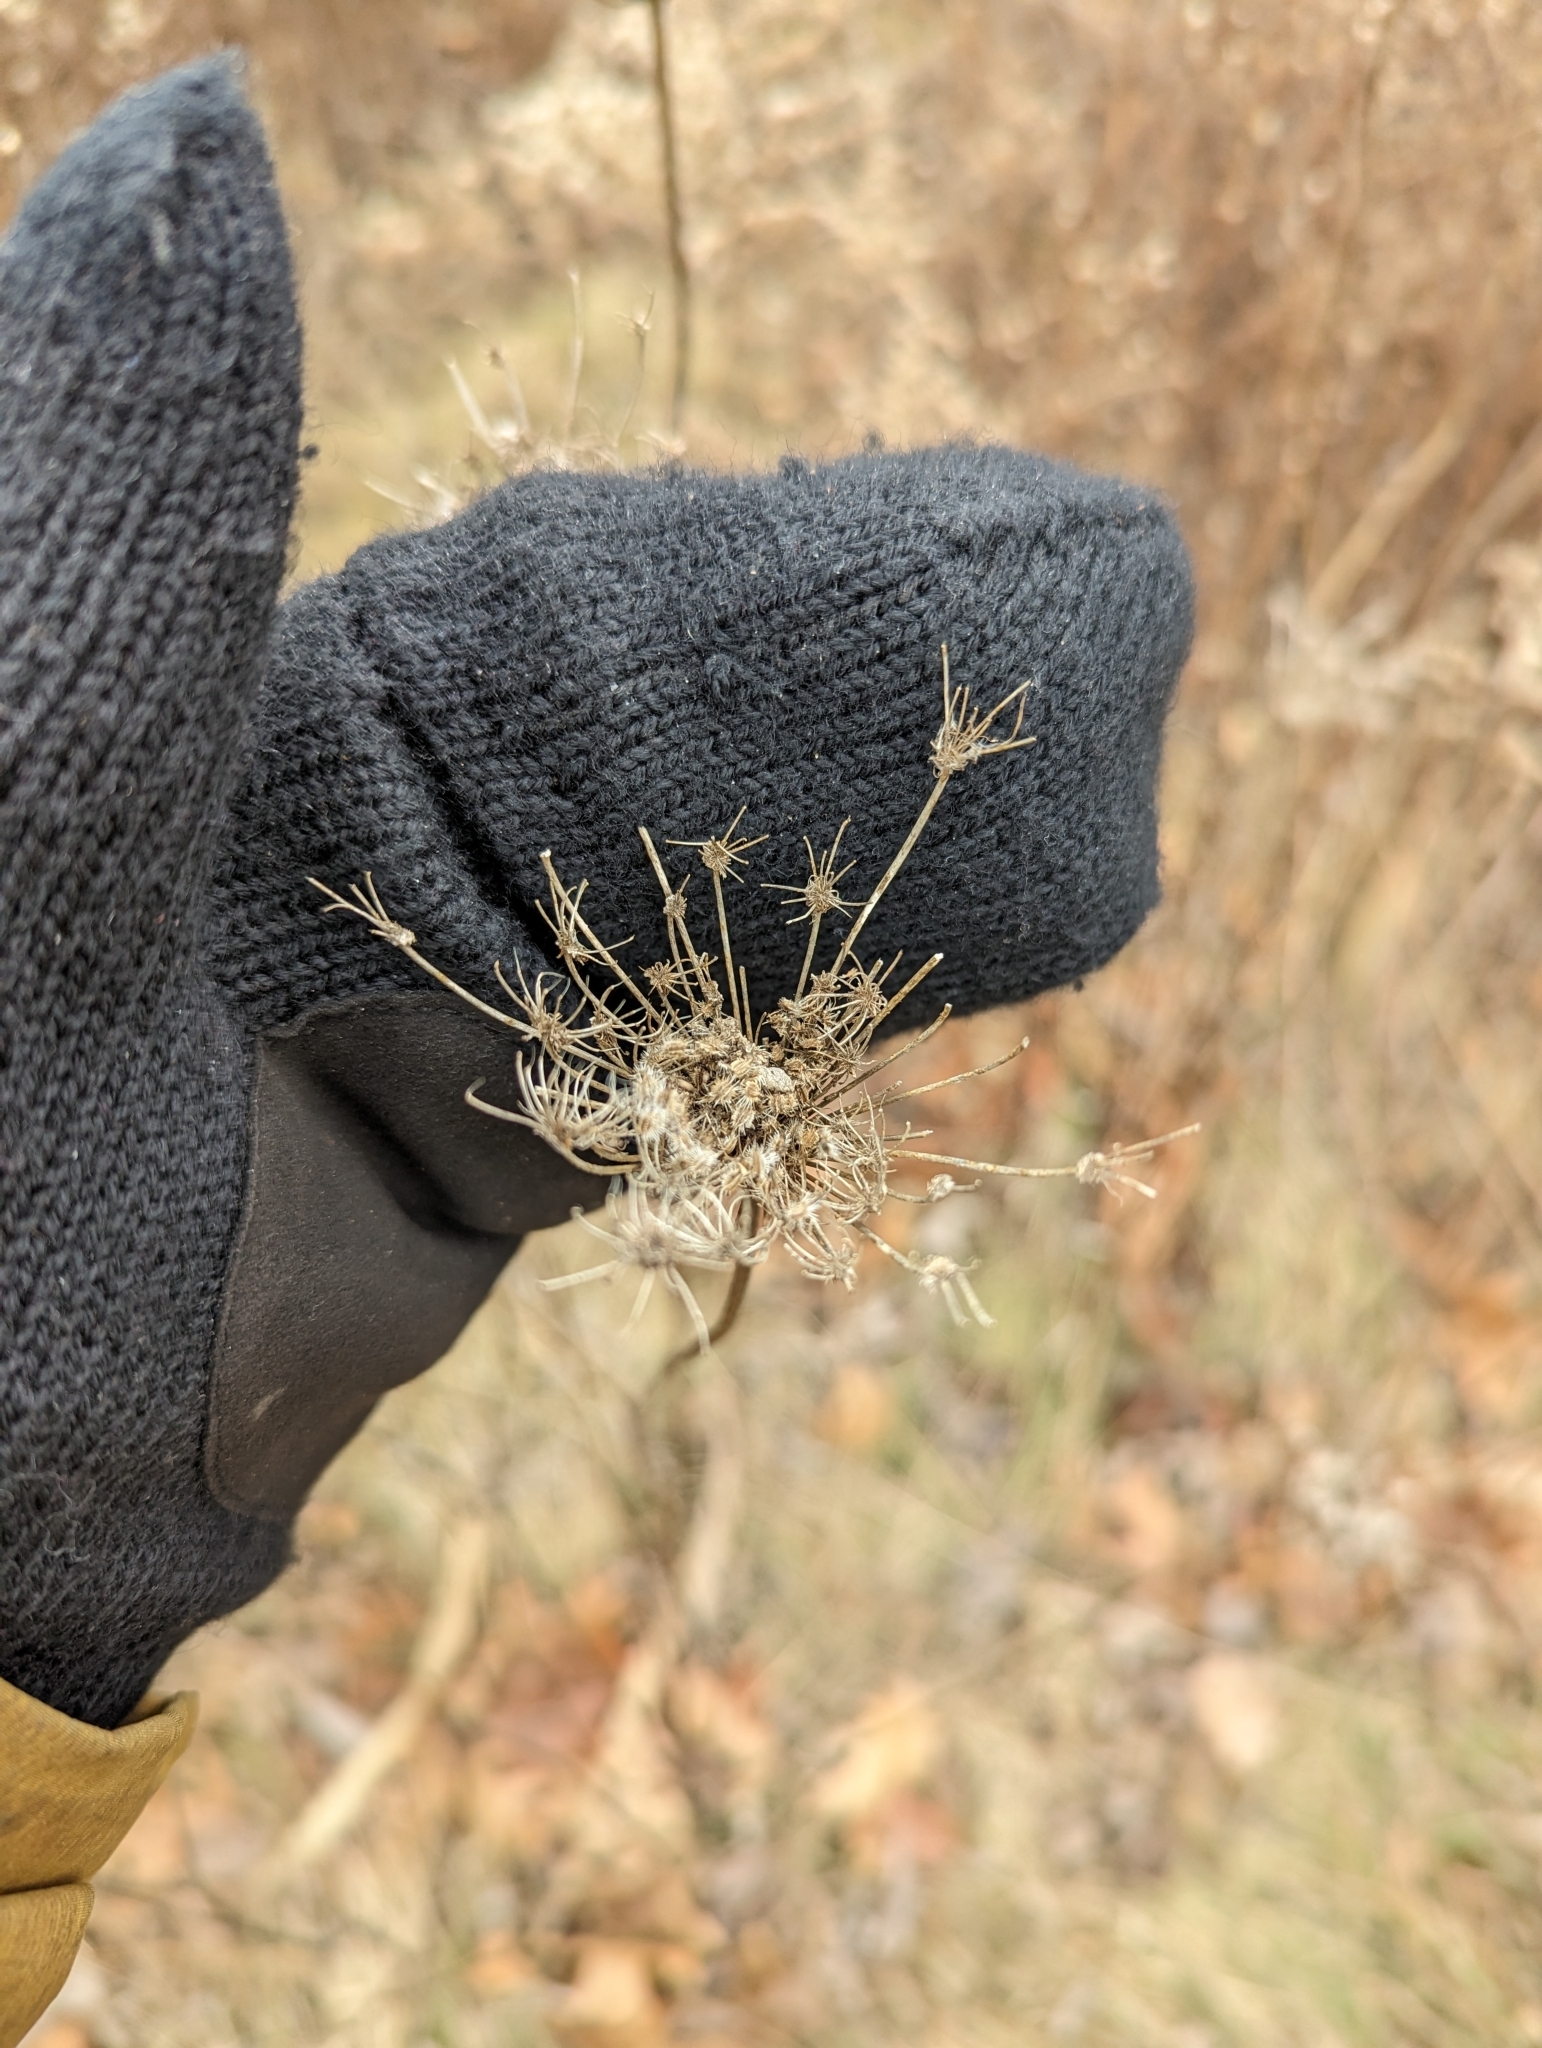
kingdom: Plantae
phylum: Tracheophyta
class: Magnoliopsida
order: Apiales
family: Apiaceae
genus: Daucus
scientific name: Daucus carota
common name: Wild carrot
